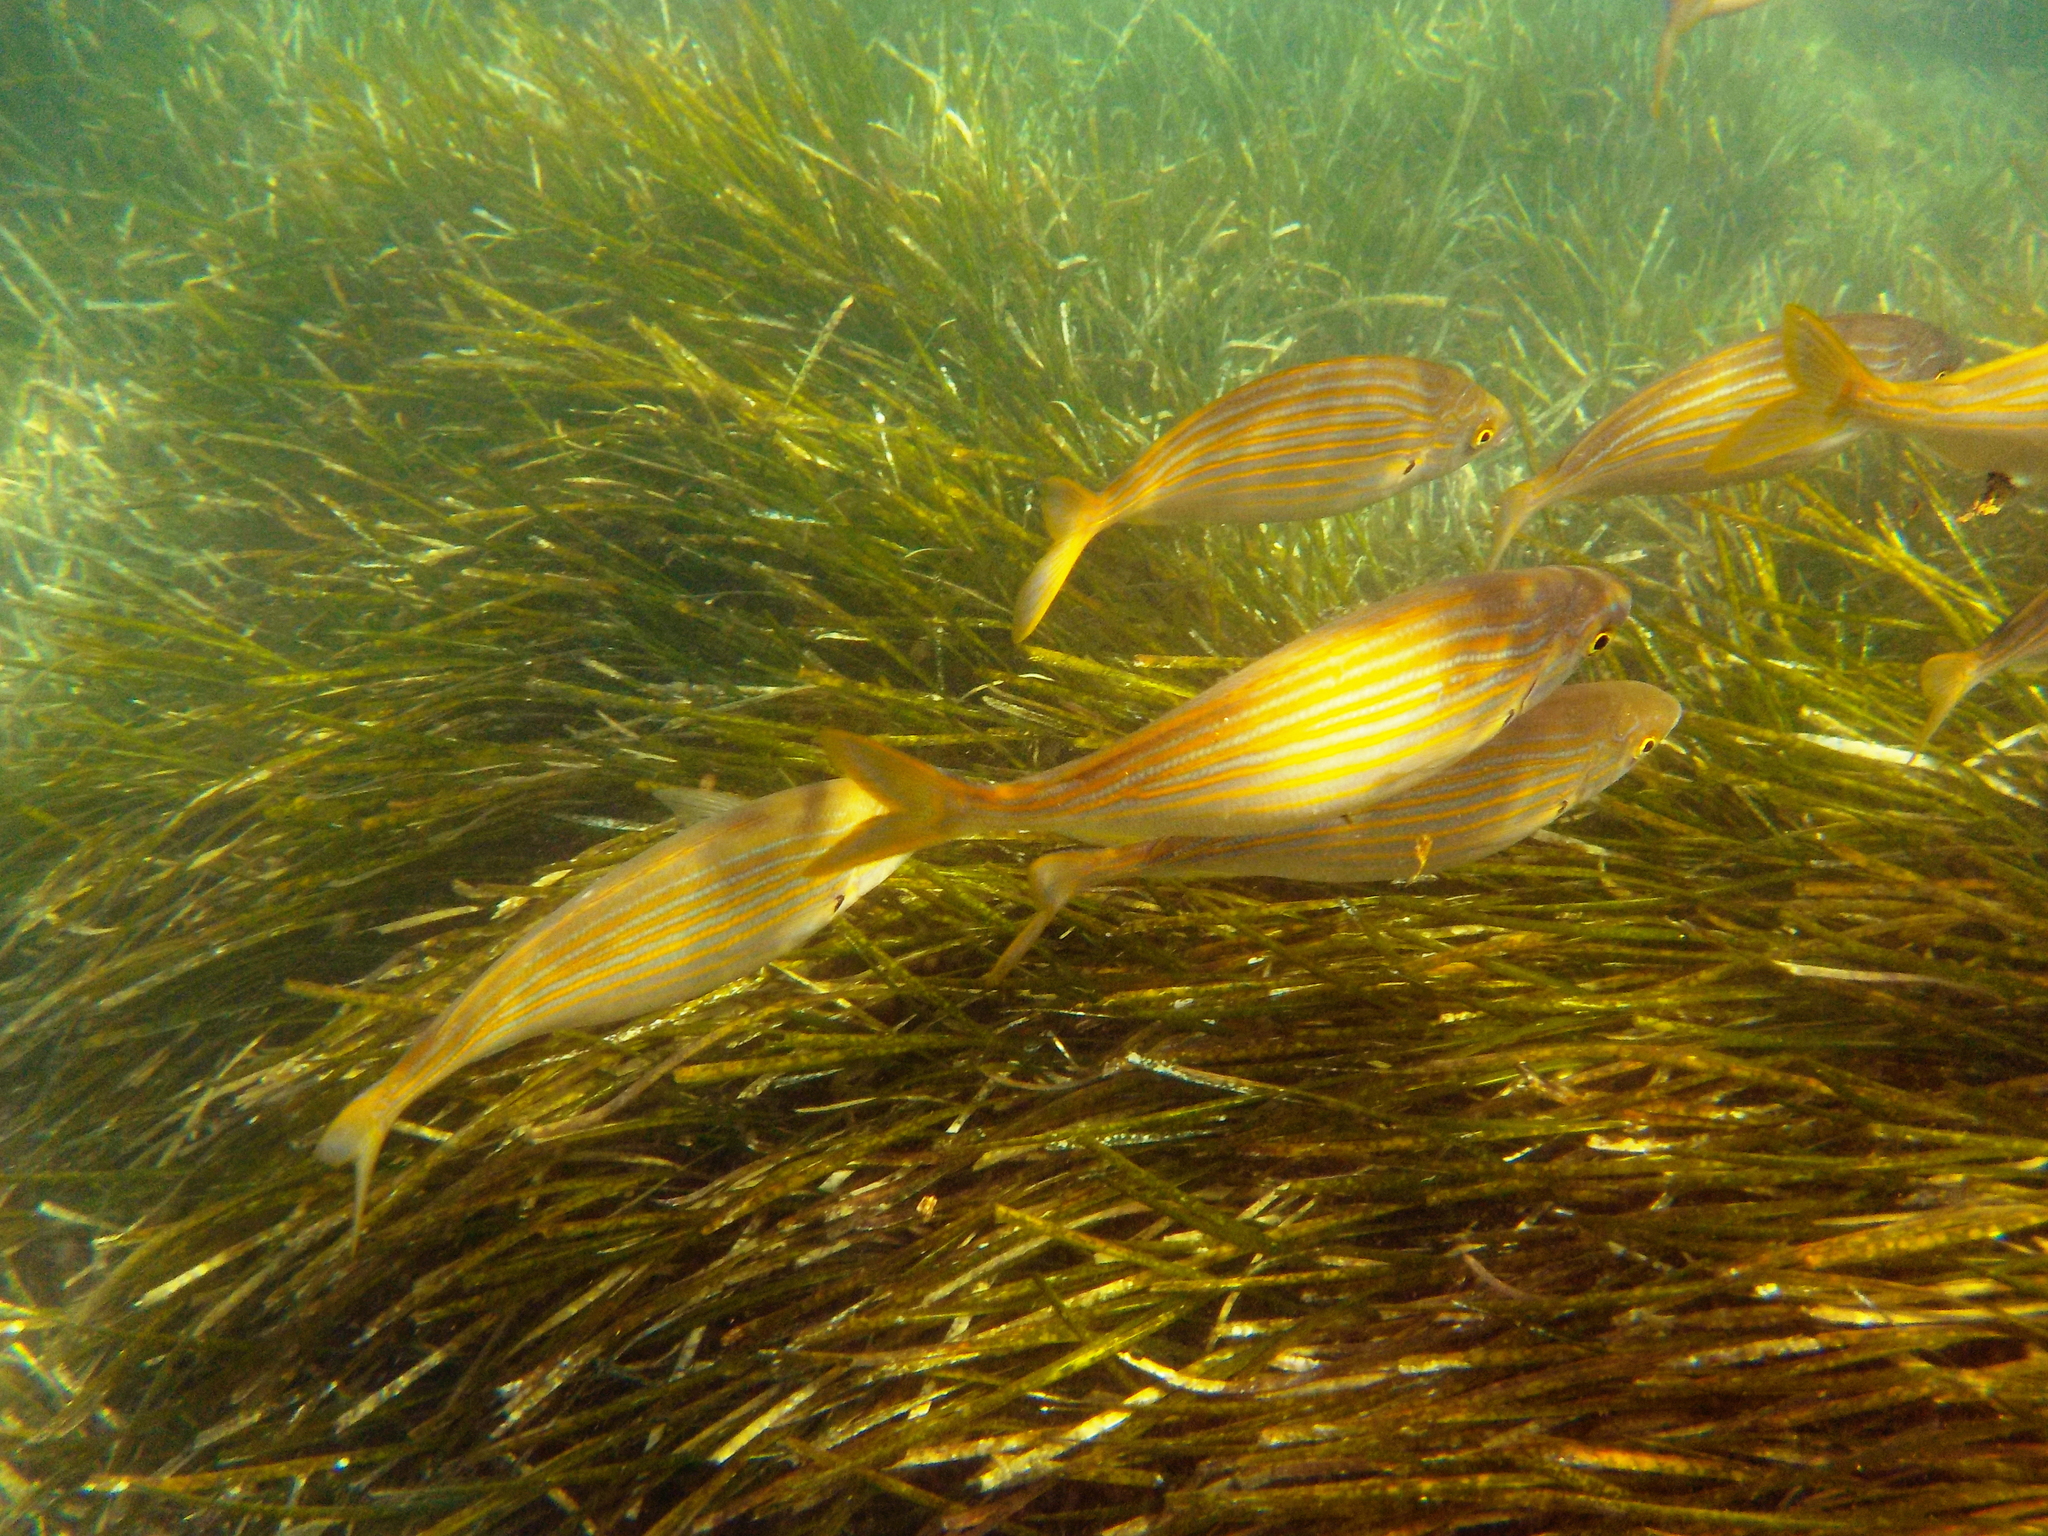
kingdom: Animalia
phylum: Chordata
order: Perciformes
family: Sparidae
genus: Sarpa
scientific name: Sarpa salpa
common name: Salema
